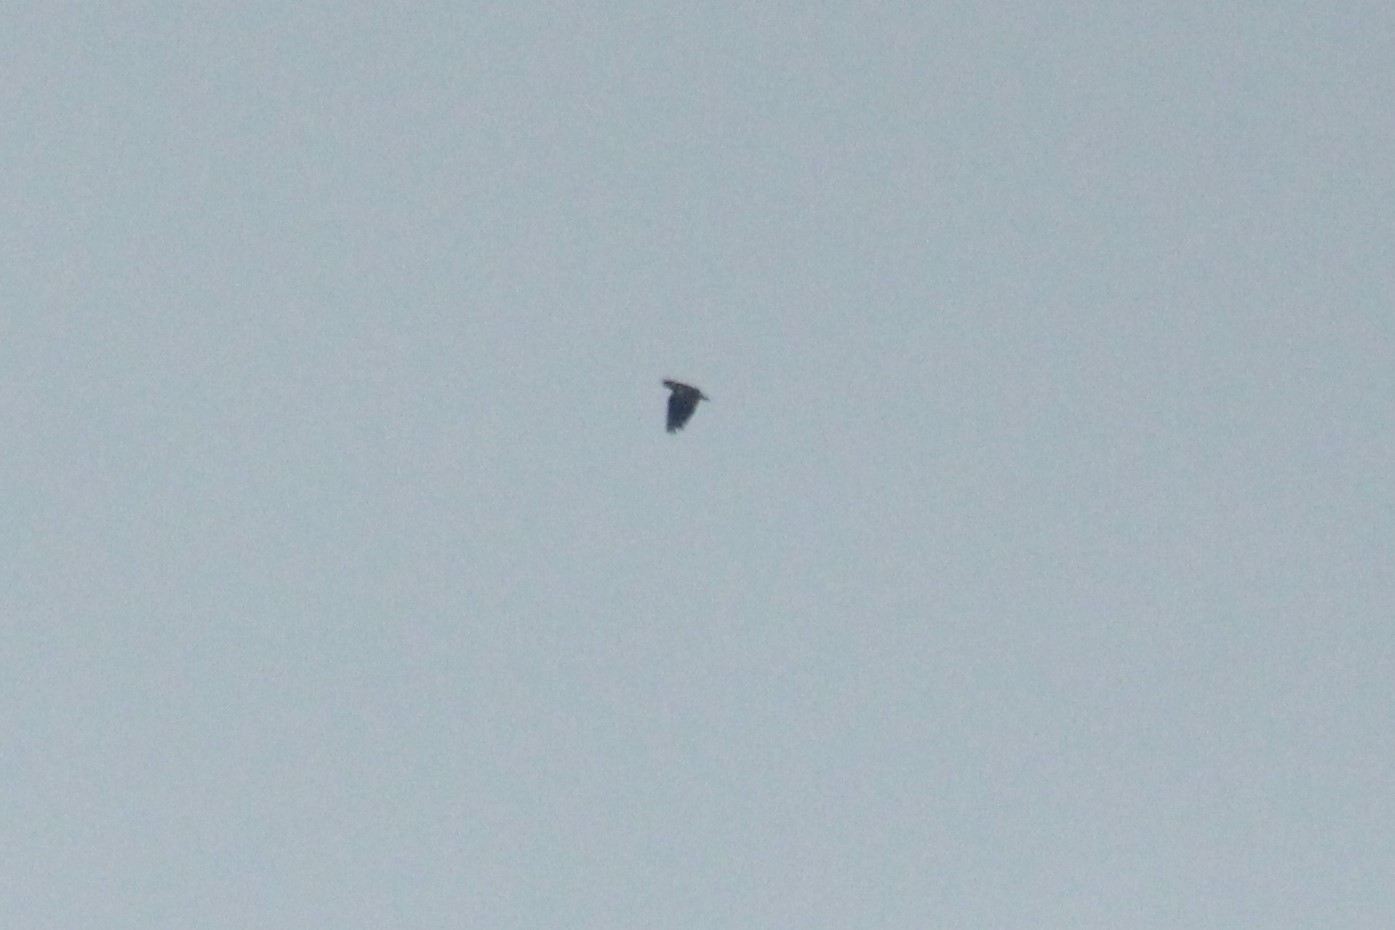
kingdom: Animalia
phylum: Chordata
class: Aves
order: Psittaciformes
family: Psittacidae
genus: Pionus
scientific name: Pionus chalcopterus
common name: Bronze-winged parrot
